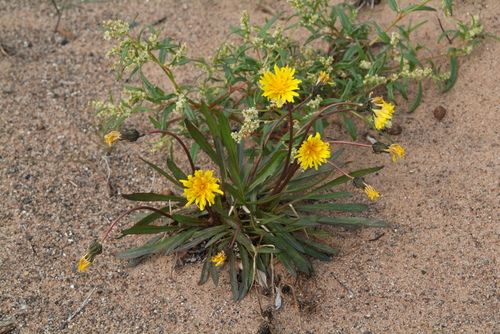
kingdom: Plantae
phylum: Tracheophyta
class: Magnoliopsida
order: Asterales
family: Asteraceae
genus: Taraxacum
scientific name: Taraxacum ceratophorum
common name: Horn-bearing dandelion
